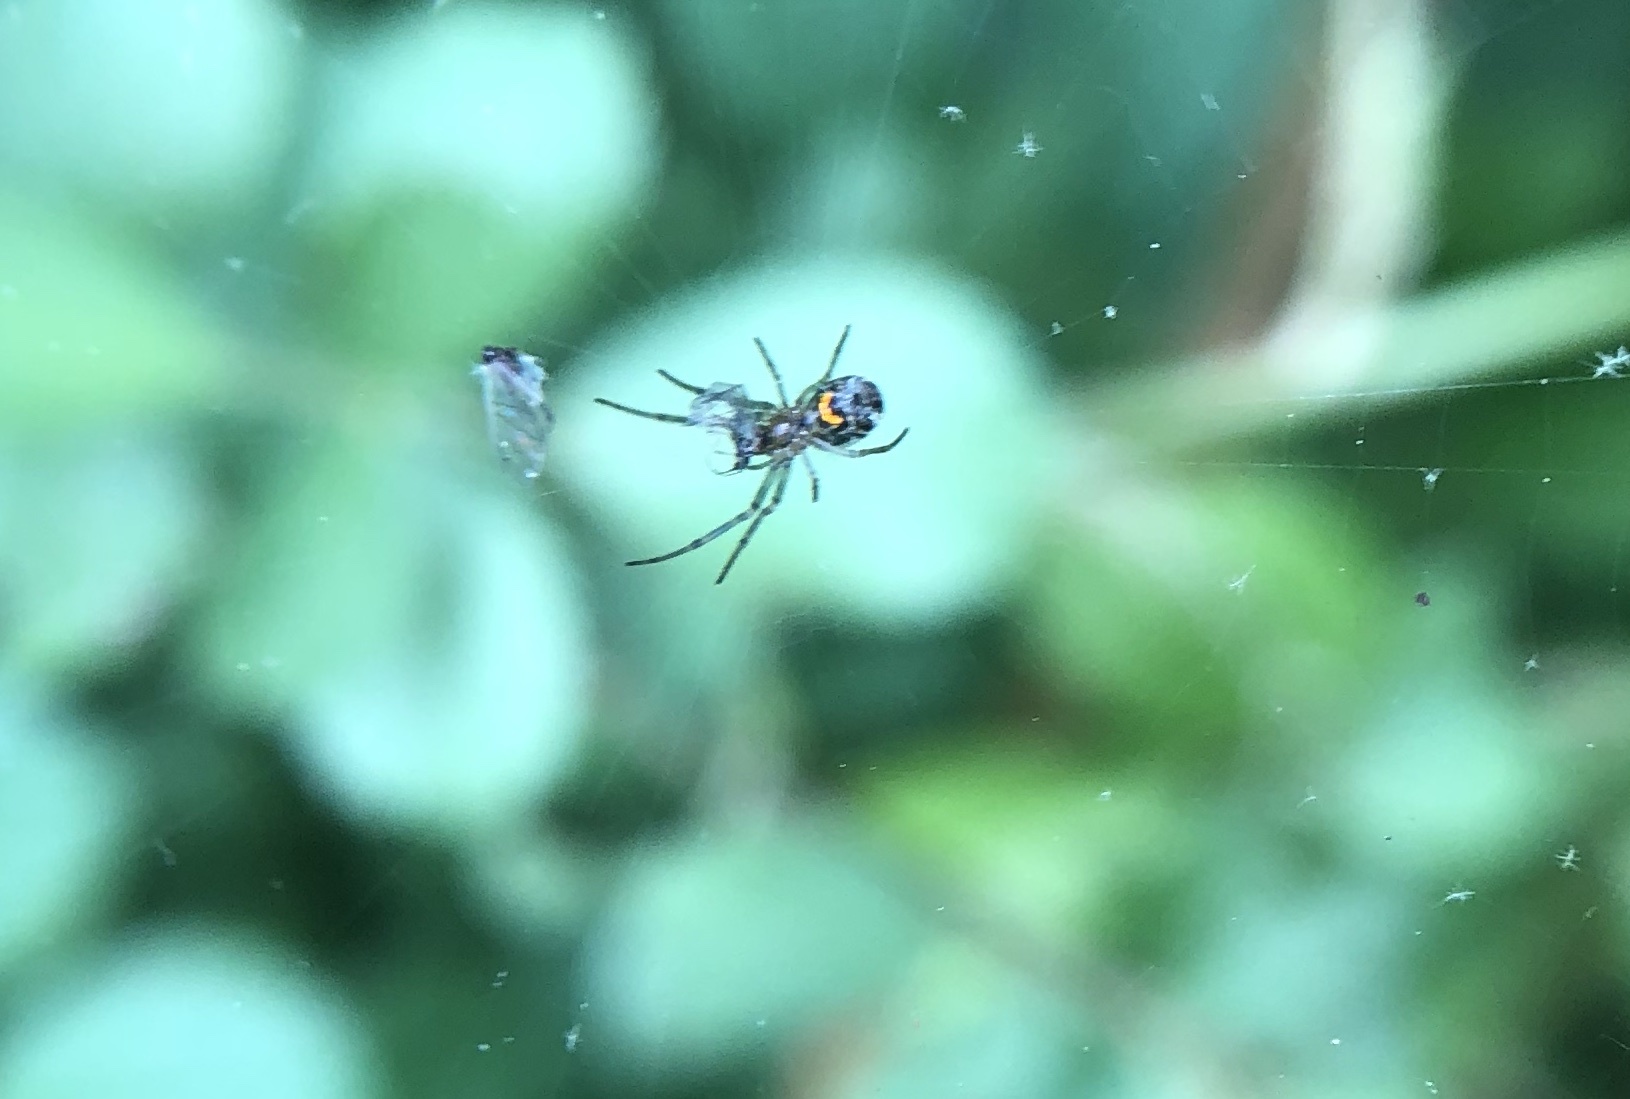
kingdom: Animalia
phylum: Arthropoda
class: Arachnida
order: Araneae
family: Tetragnathidae
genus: Leucauge
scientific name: Leucauge venusta
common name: Longjawed orb weavers
